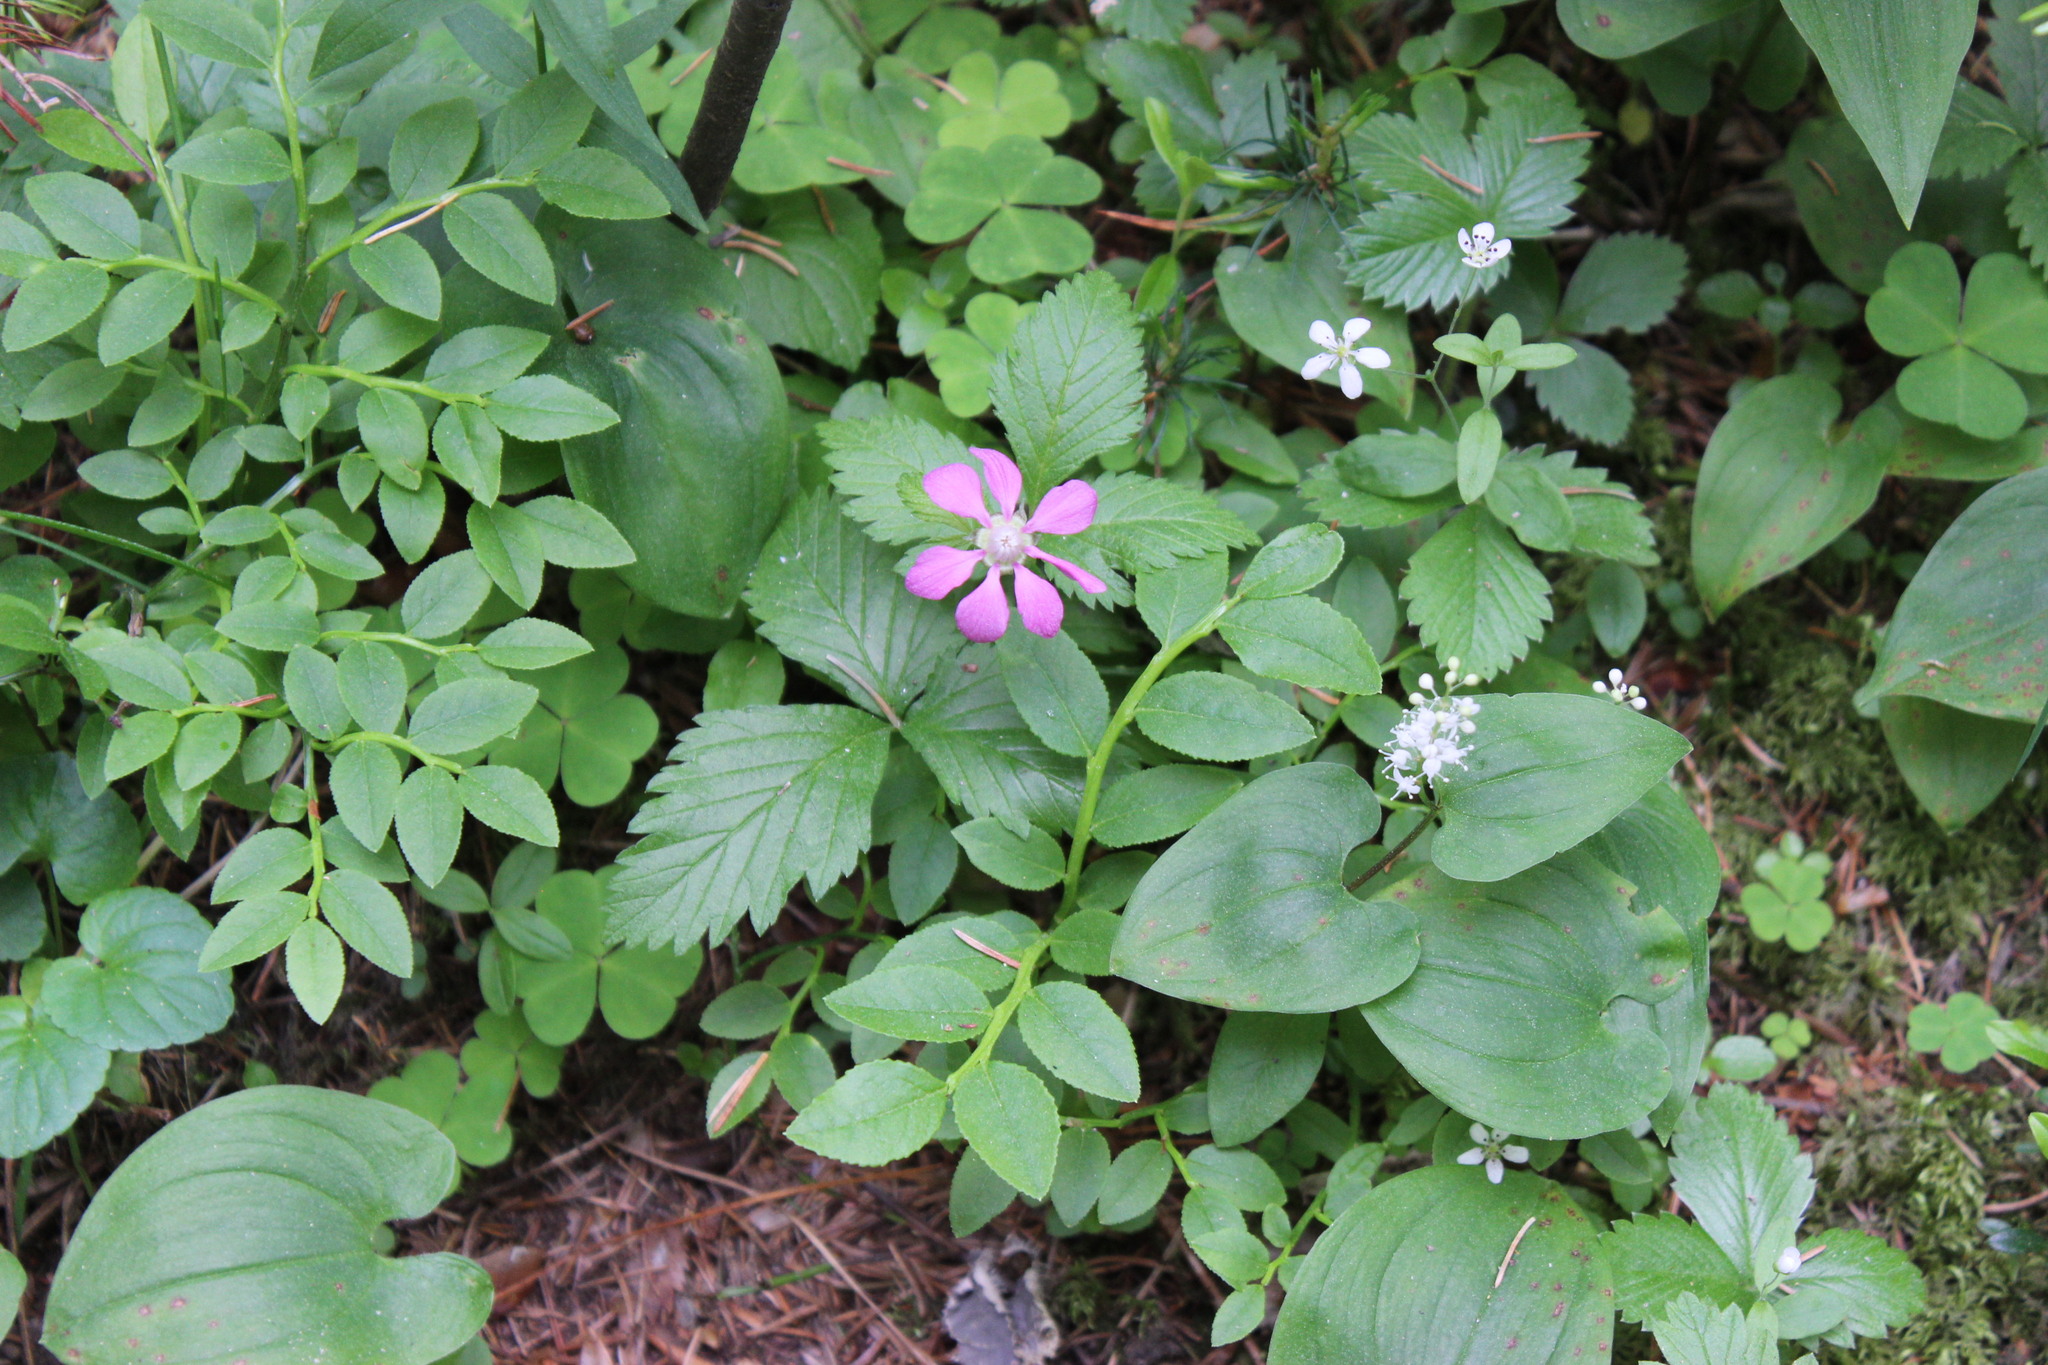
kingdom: Plantae
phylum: Tracheophyta
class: Magnoliopsida
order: Rosales
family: Rosaceae
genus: Rubus
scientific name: Rubus arcticus
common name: Arctic bramble
